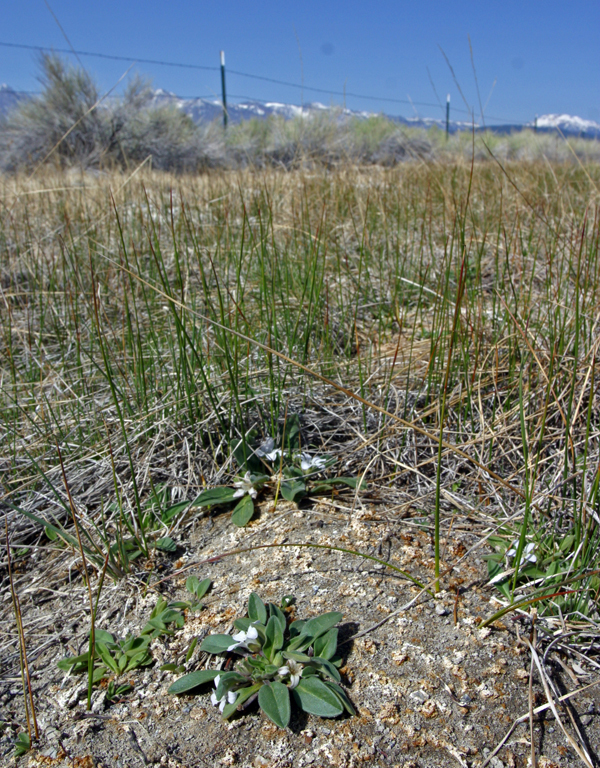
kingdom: Plantae
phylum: Tracheophyta
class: Magnoliopsida
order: Boraginales
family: Hydrophyllaceae
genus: Hesperochiron
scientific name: Hesperochiron californicus
